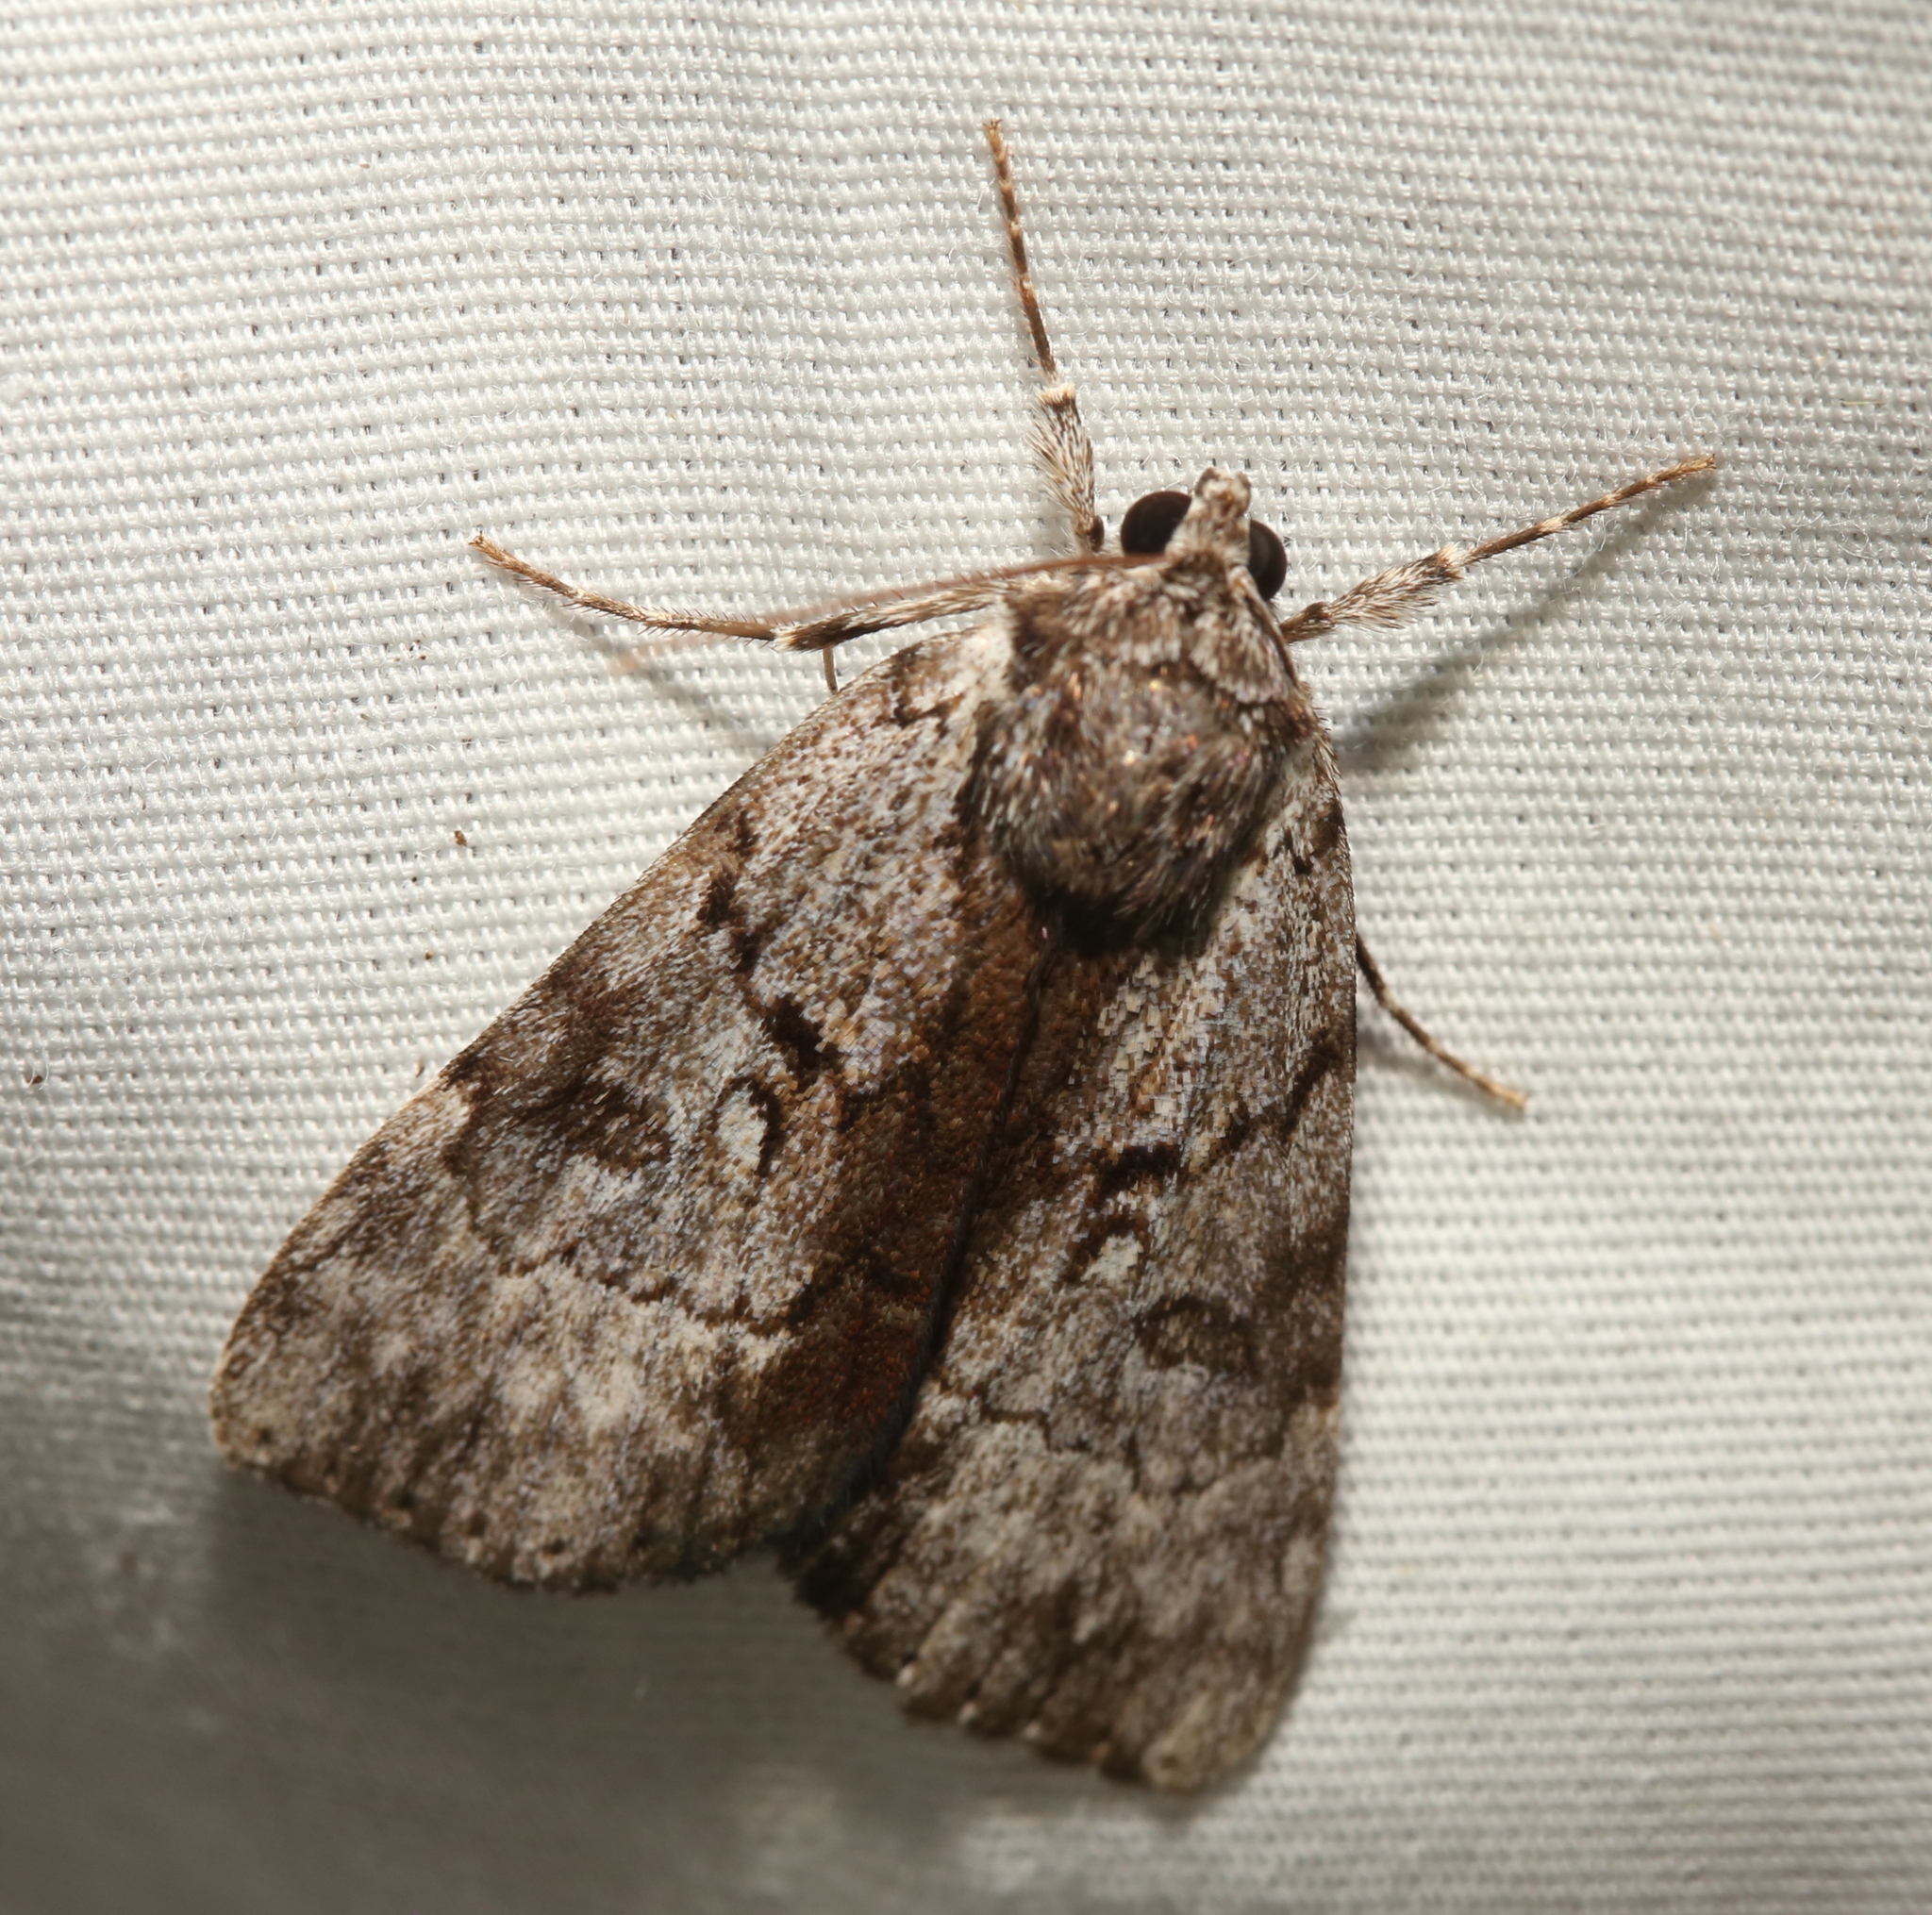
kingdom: Animalia
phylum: Arthropoda
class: Insecta
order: Lepidoptera
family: Erebidae
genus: Catocala
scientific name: Catocala andromedae
